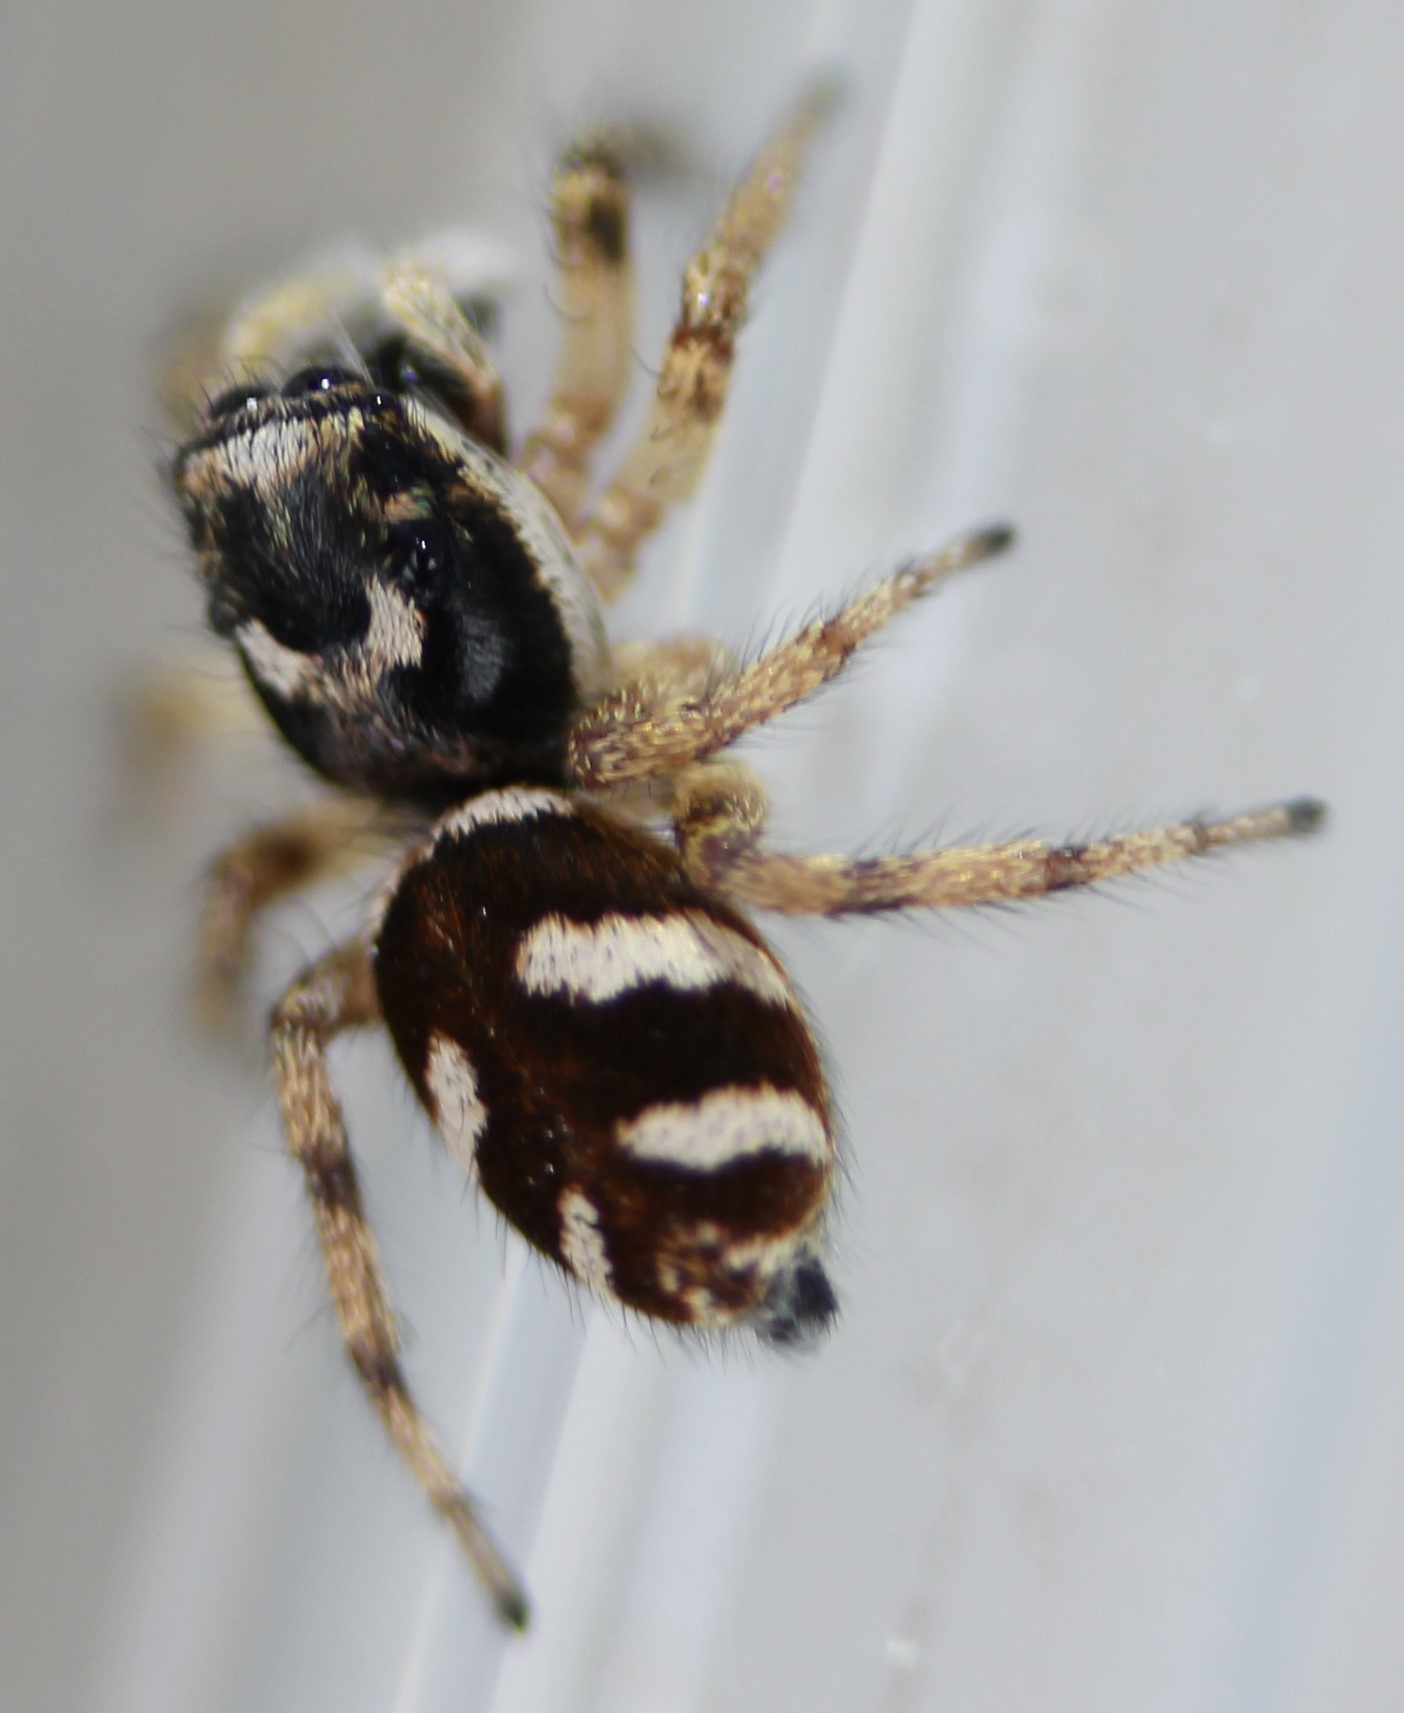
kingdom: Animalia
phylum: Arthropoda
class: Arachnida
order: Araneae
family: Salticidae
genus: Salticus
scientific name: Salticus scenicus
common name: Zebra jumper
